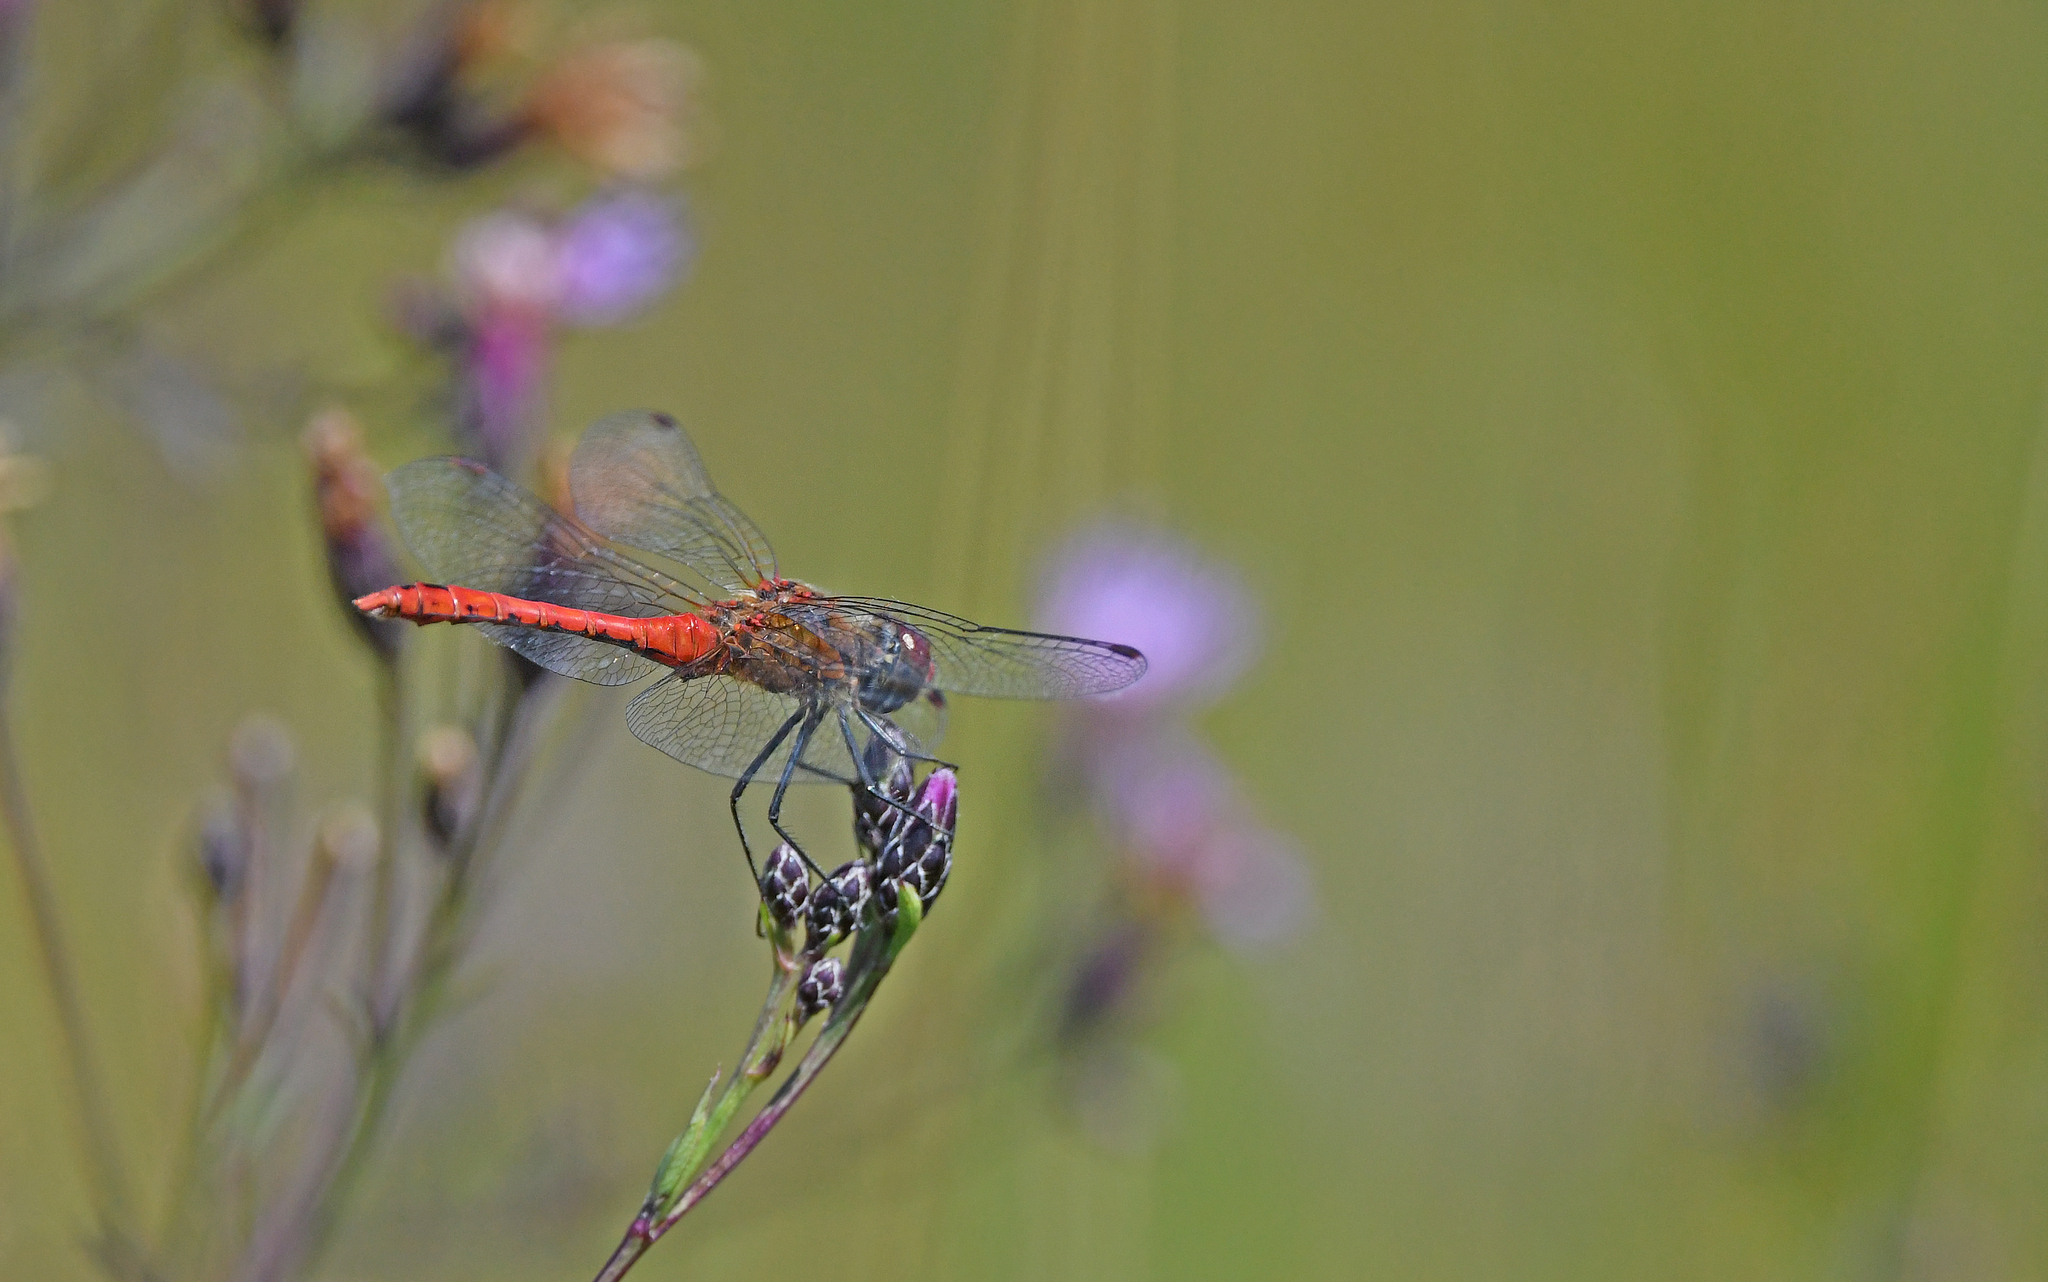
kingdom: Animalia
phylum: Arthropoda
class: Insecta
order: Odonata
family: Libellulidae
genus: Sympetrum
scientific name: Sympetrum sanguineum
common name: Ruddy darter
